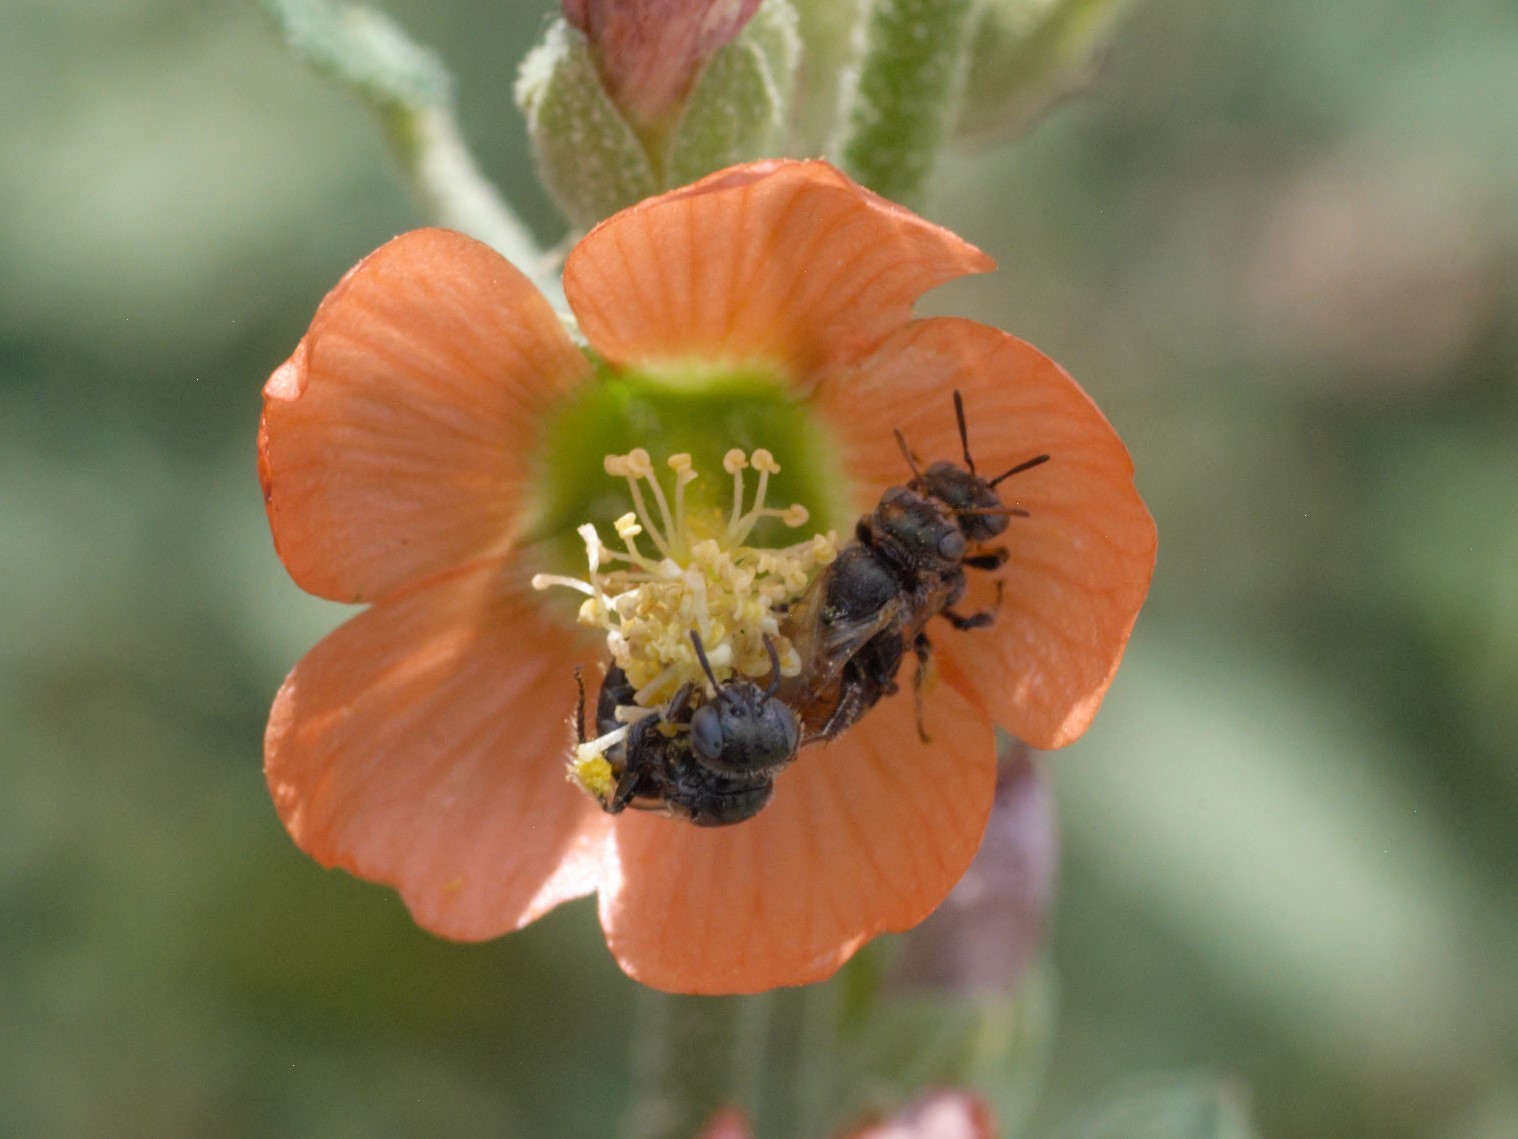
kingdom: Animalia
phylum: Arthropoda
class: Insecta
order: Hymenoptera
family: Andrenidae
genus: Macrotera
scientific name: Macrotera latior
